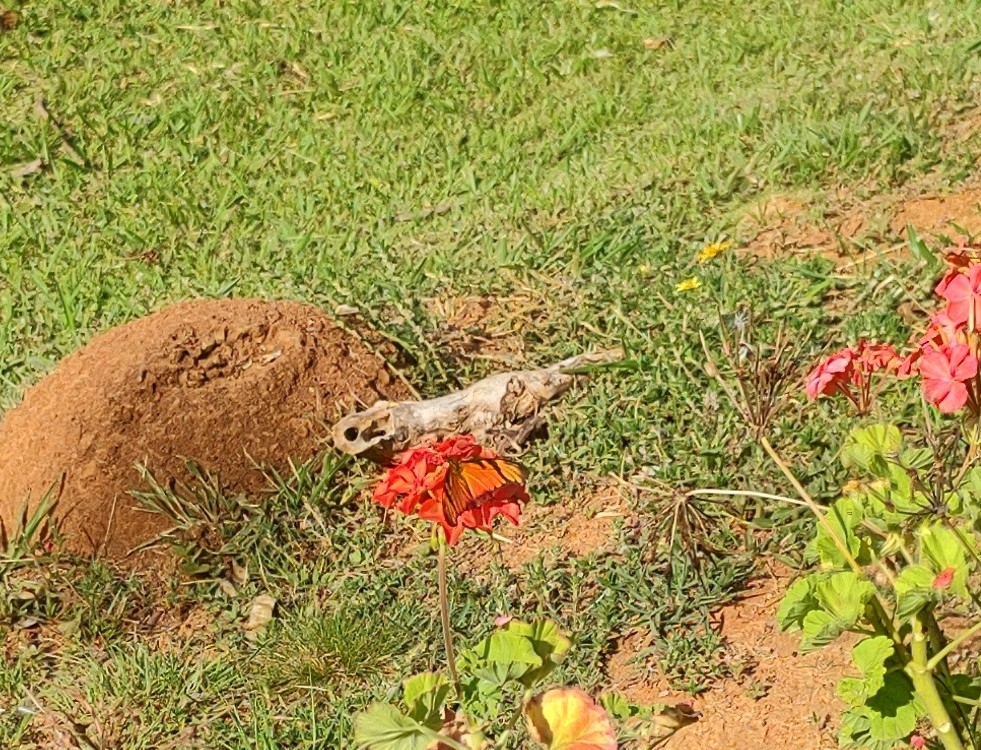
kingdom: Animalia
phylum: Arthropoda
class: Insecta
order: Lepidoptera
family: Nymphalidae
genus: Dione
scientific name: Dione juno
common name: Juno silverspot
